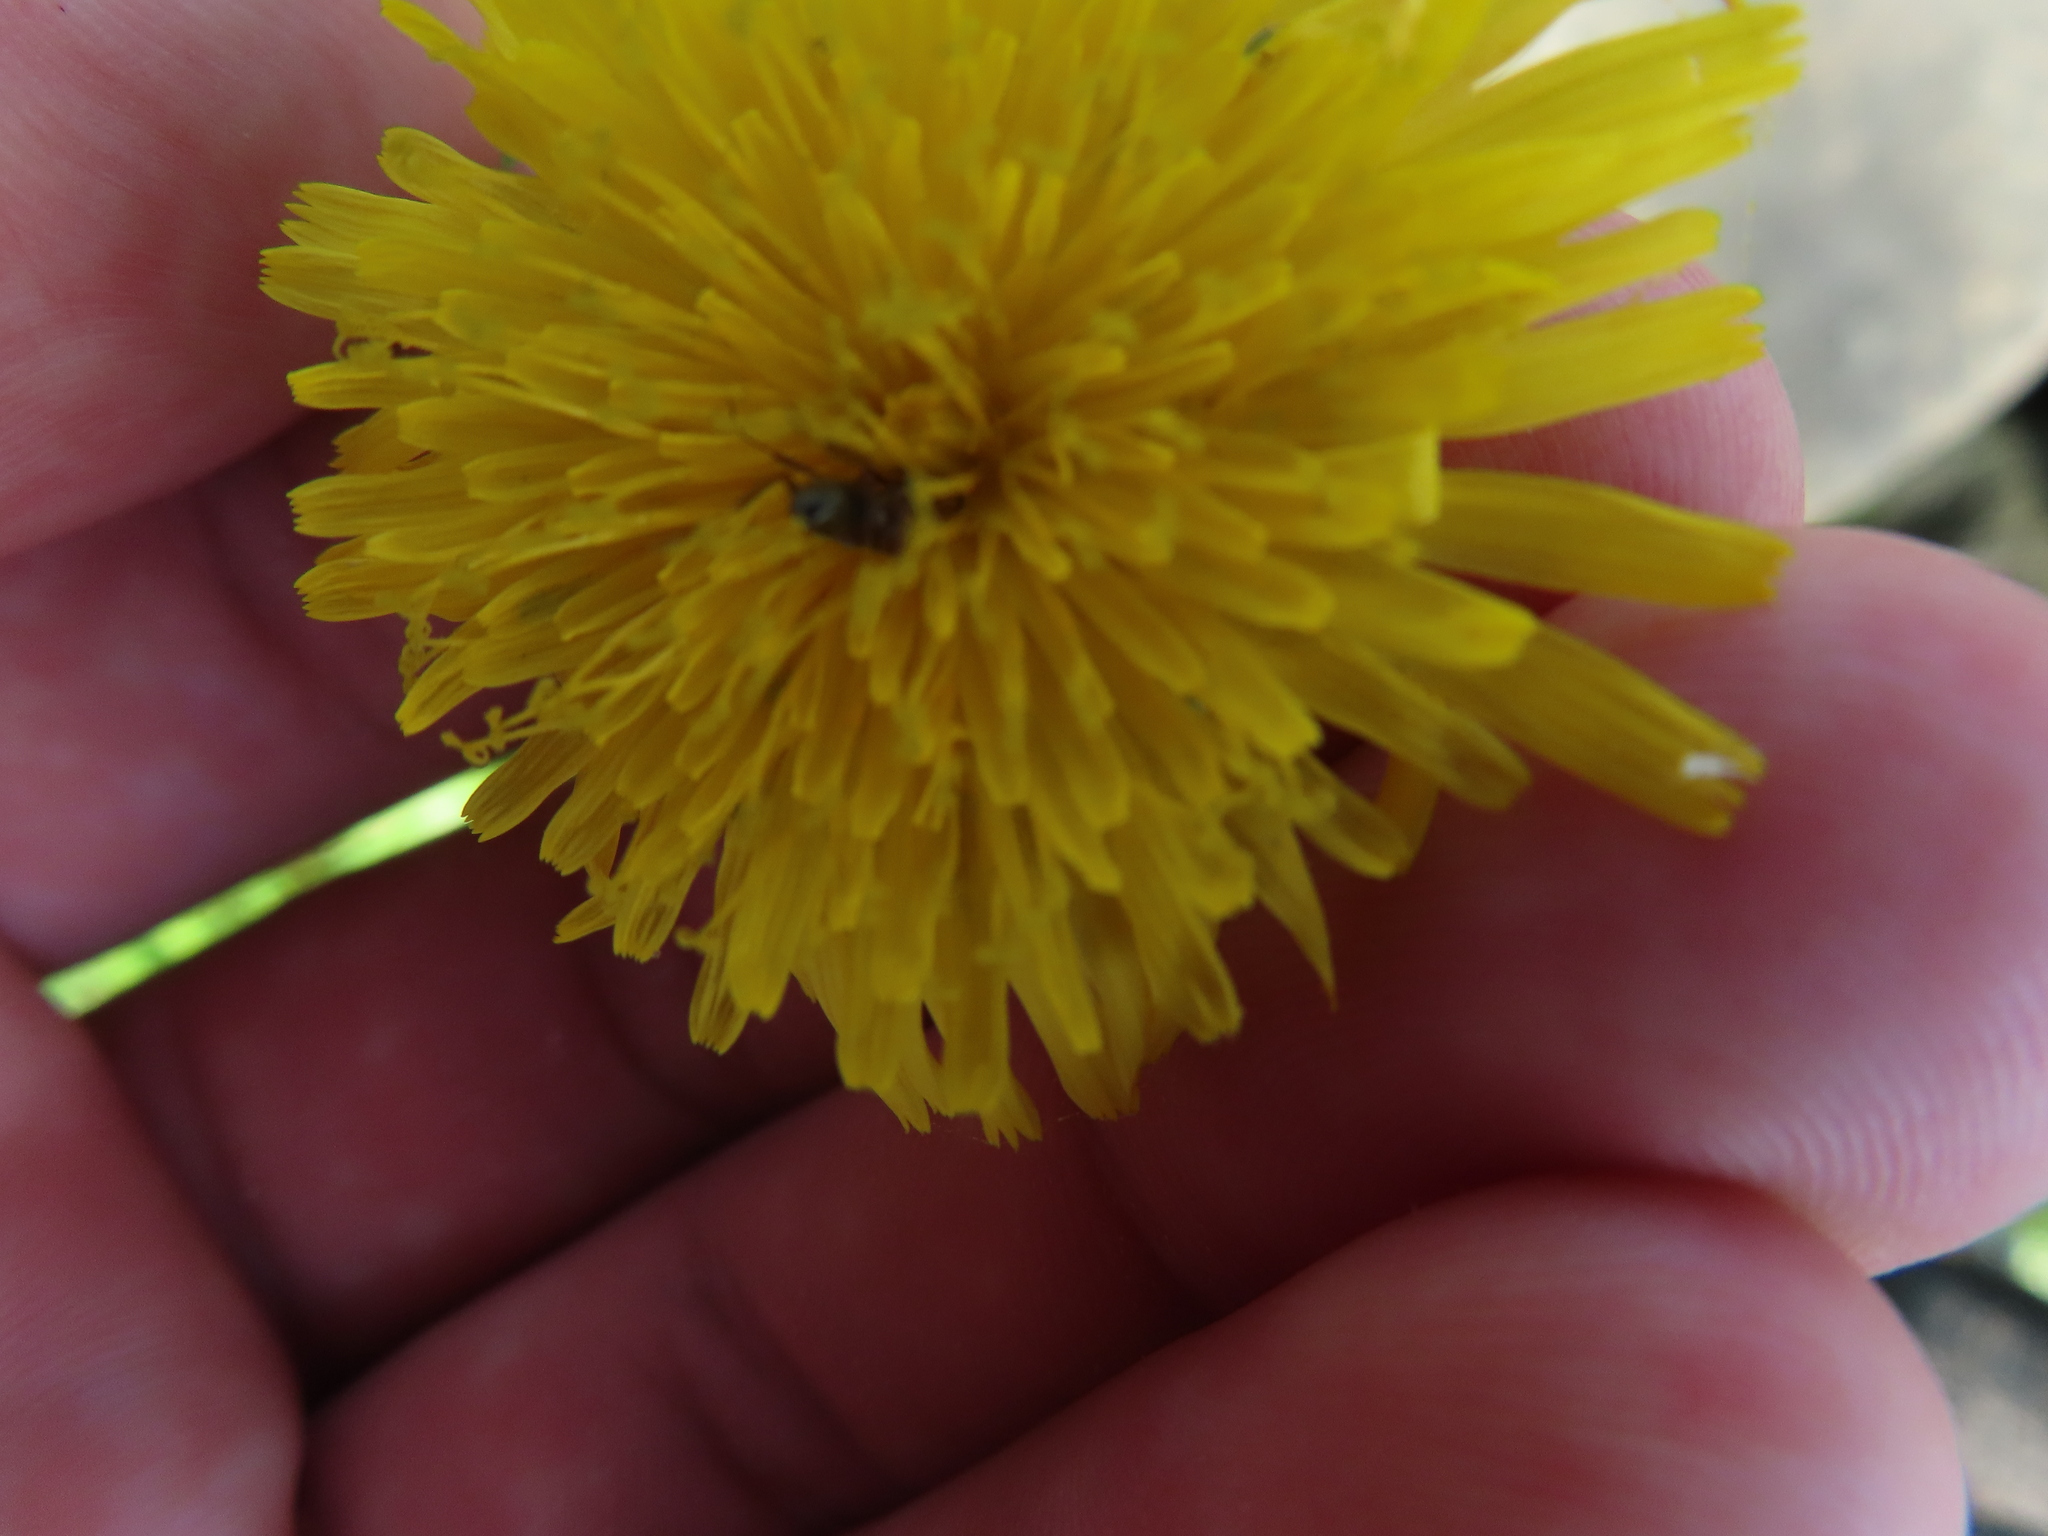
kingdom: Animalia
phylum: Arthropoda
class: Insecta
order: Hymenoptera
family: Formicidae
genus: Formica
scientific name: Formica montana
